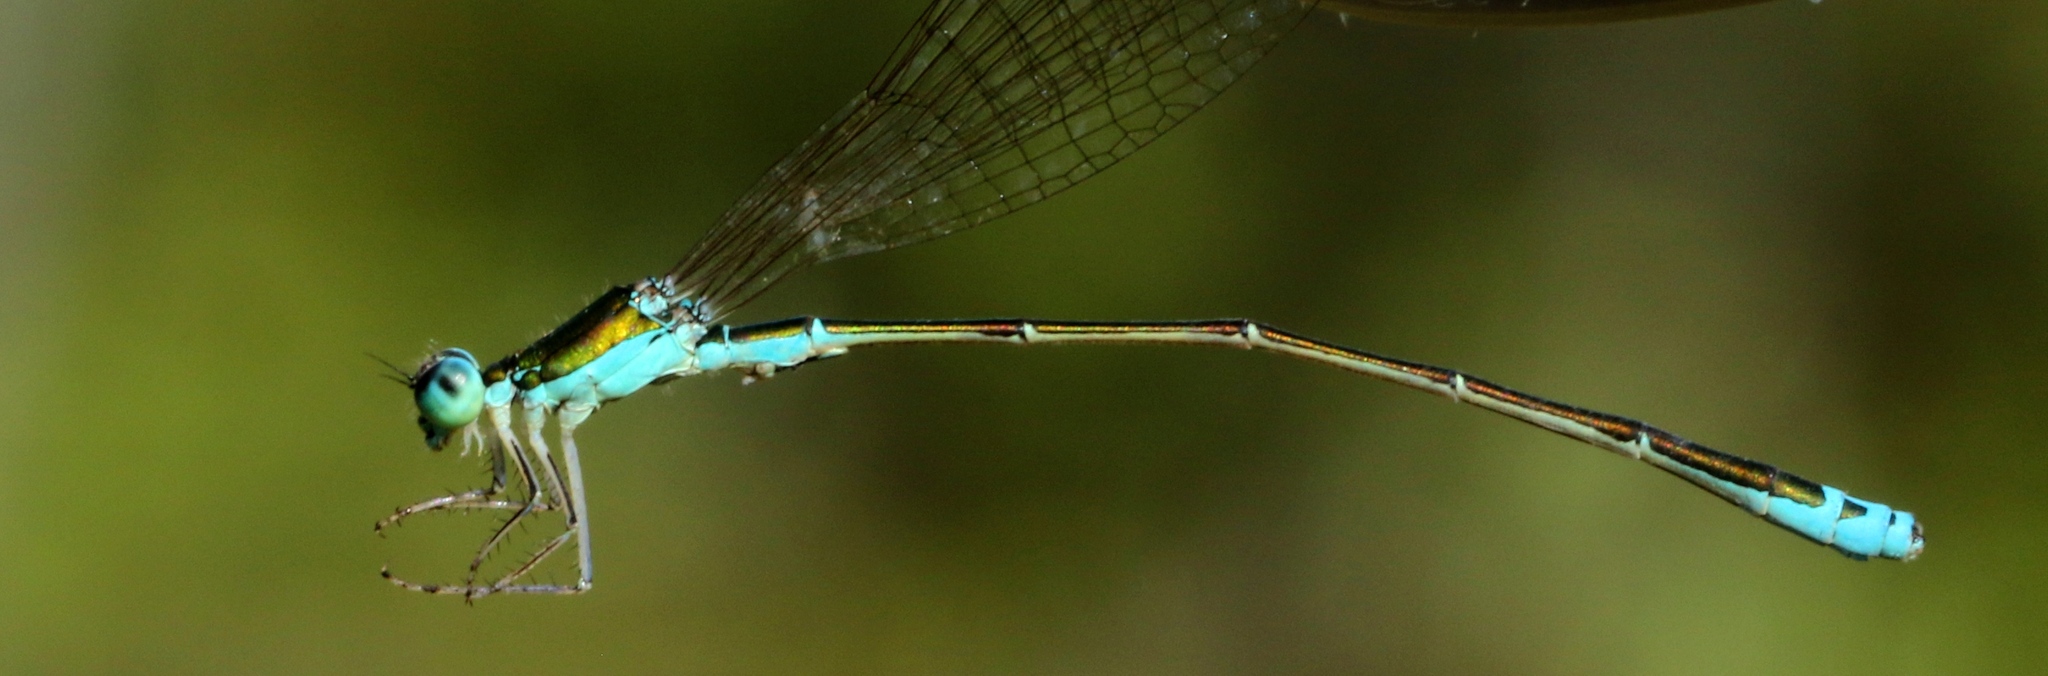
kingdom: Animalia
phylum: Arthropoda
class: Insecta
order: Odonata
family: Coenagrionidae
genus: Nehalennia
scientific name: Nehalennia irene
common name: Sedge sprite
